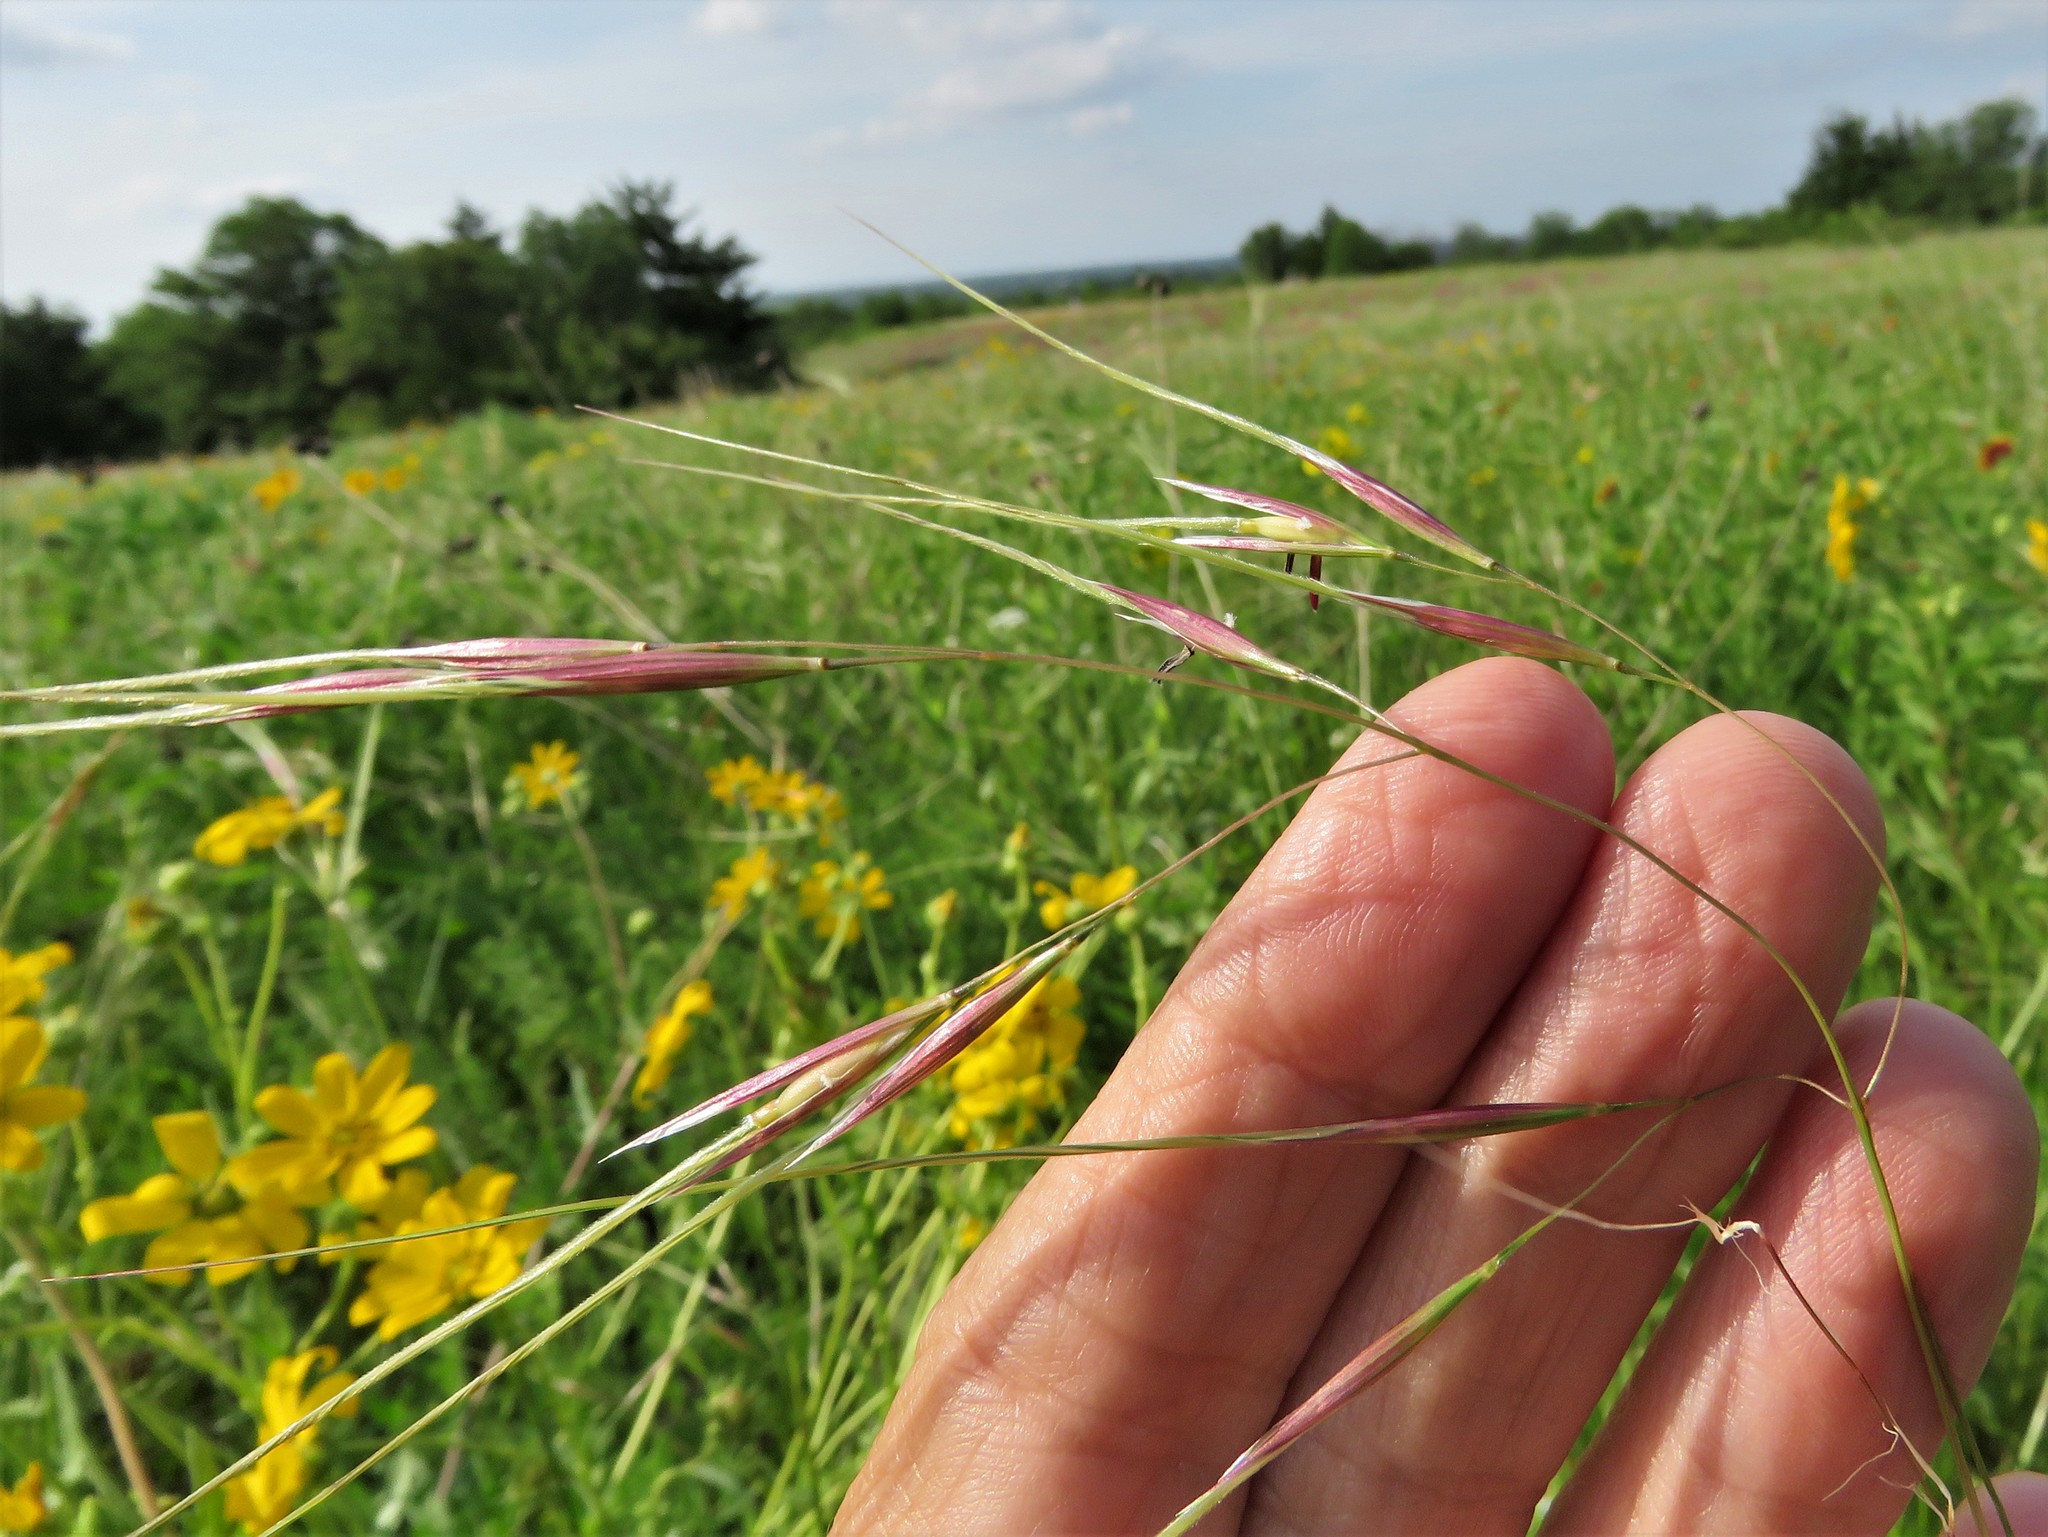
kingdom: Plantae
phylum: Tracheophyta
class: Liliopsida
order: Poales
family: Poaceae
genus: Nassella
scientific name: Nassella leucotricha
